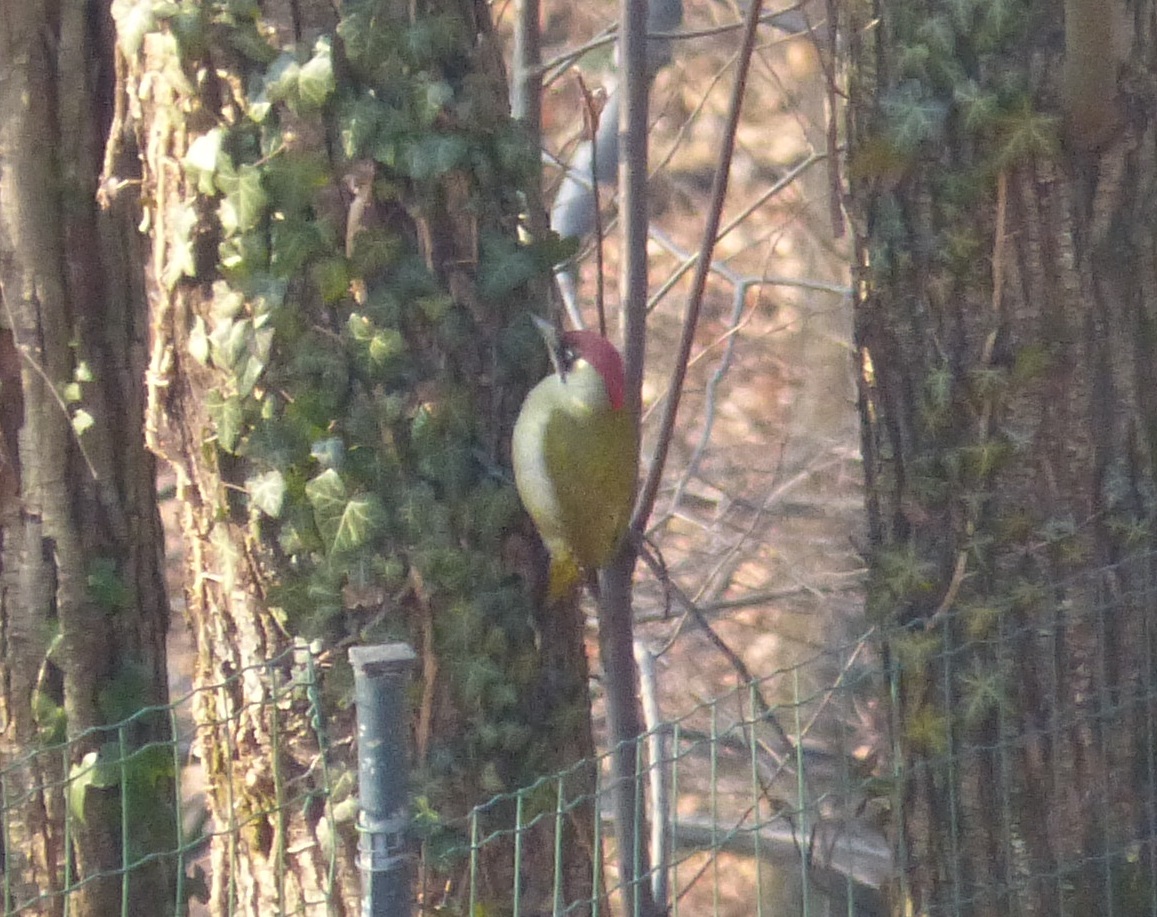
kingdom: Animalia
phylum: Chordata
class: Aves
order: Piciformes
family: Picidae
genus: Picus
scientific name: Picus viridis
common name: European green woodpecker
